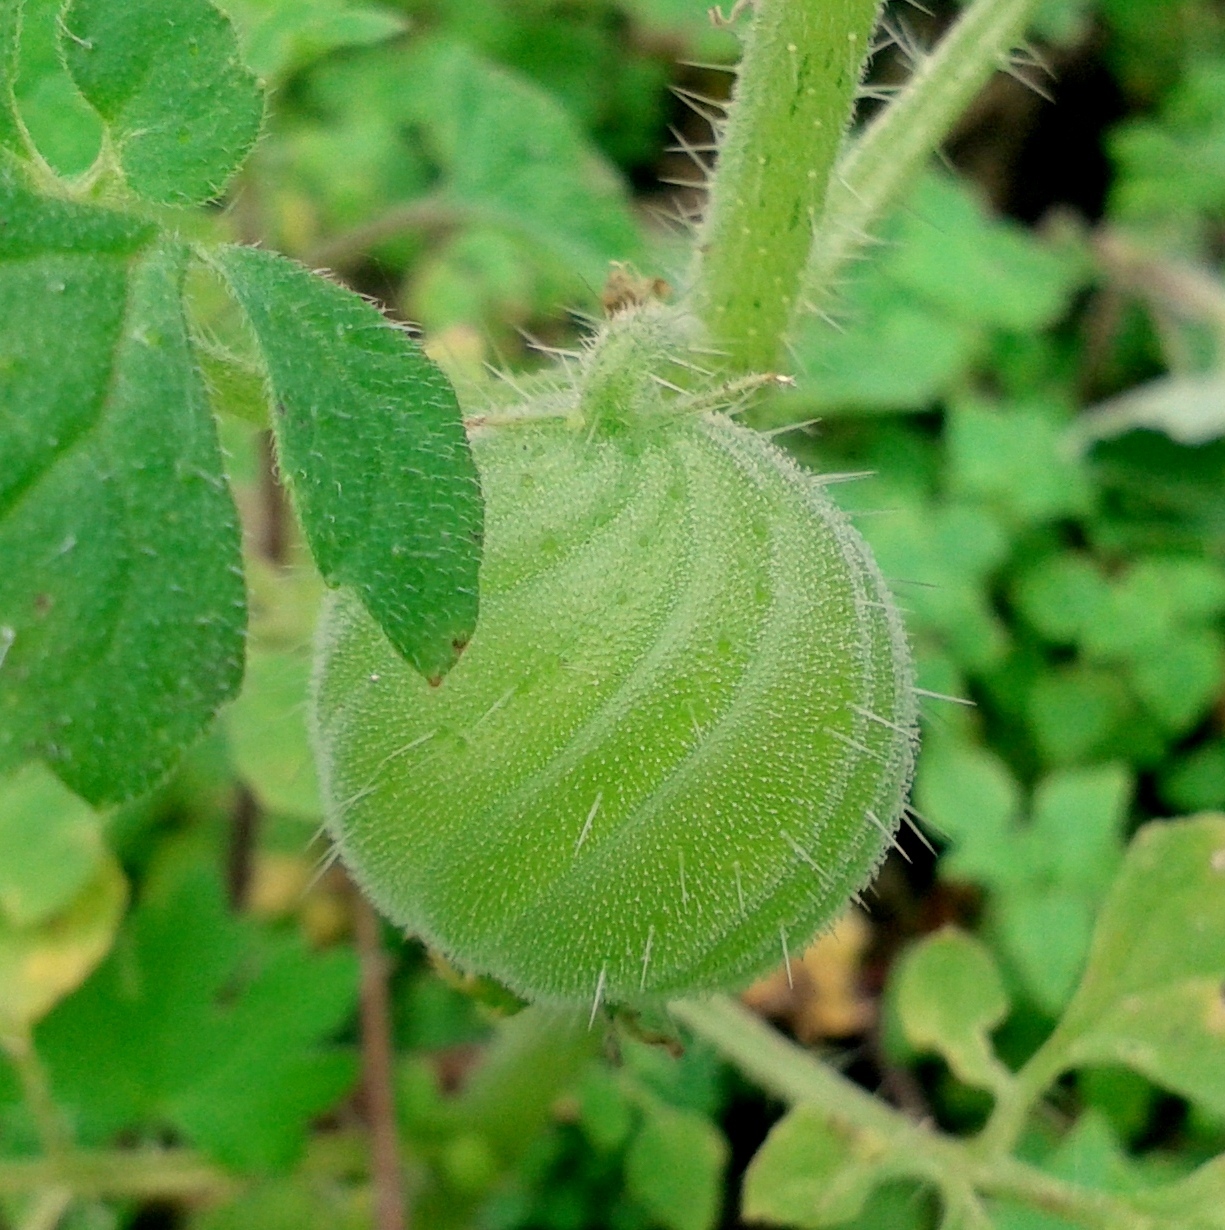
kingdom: Plantae
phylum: Tracheophyta
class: Magnoliopsida
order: Cornales
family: Loasaceae
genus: Blumenbachia
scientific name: Blumenbachia latifolia
